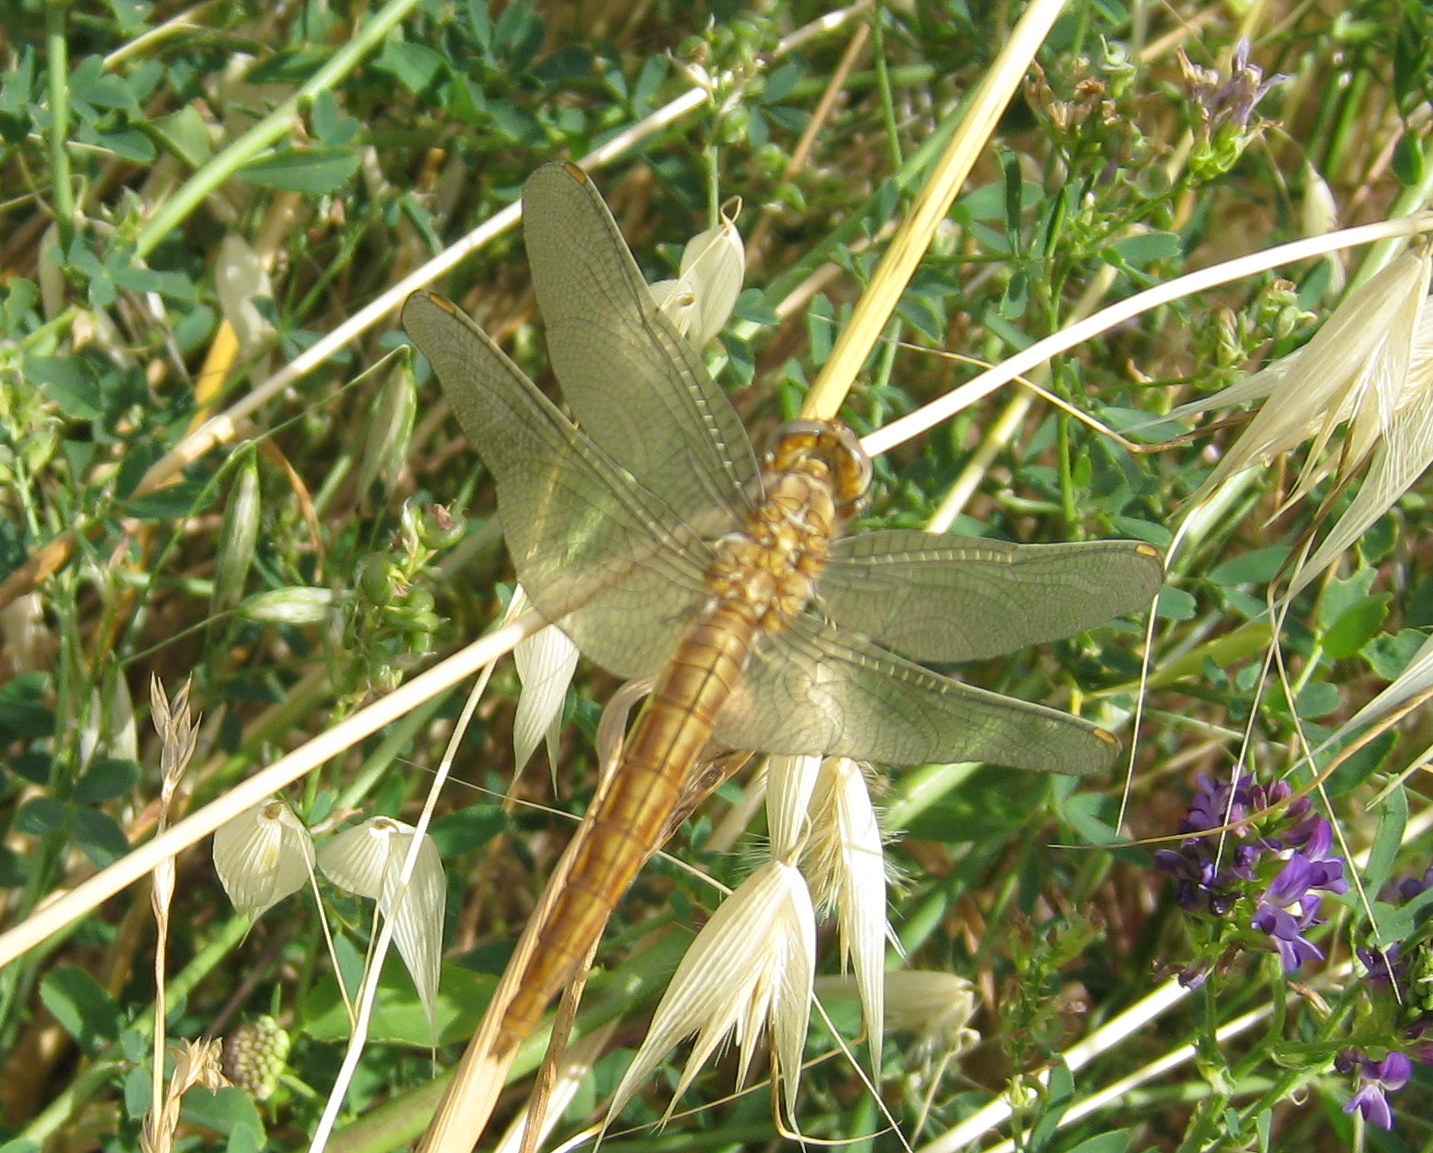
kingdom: Animalia
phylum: Arthropoda
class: Insecta
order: Odonata
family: Libellulidae
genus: Orthetrum
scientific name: Orthetrum brunneum
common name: Southern skimmer
